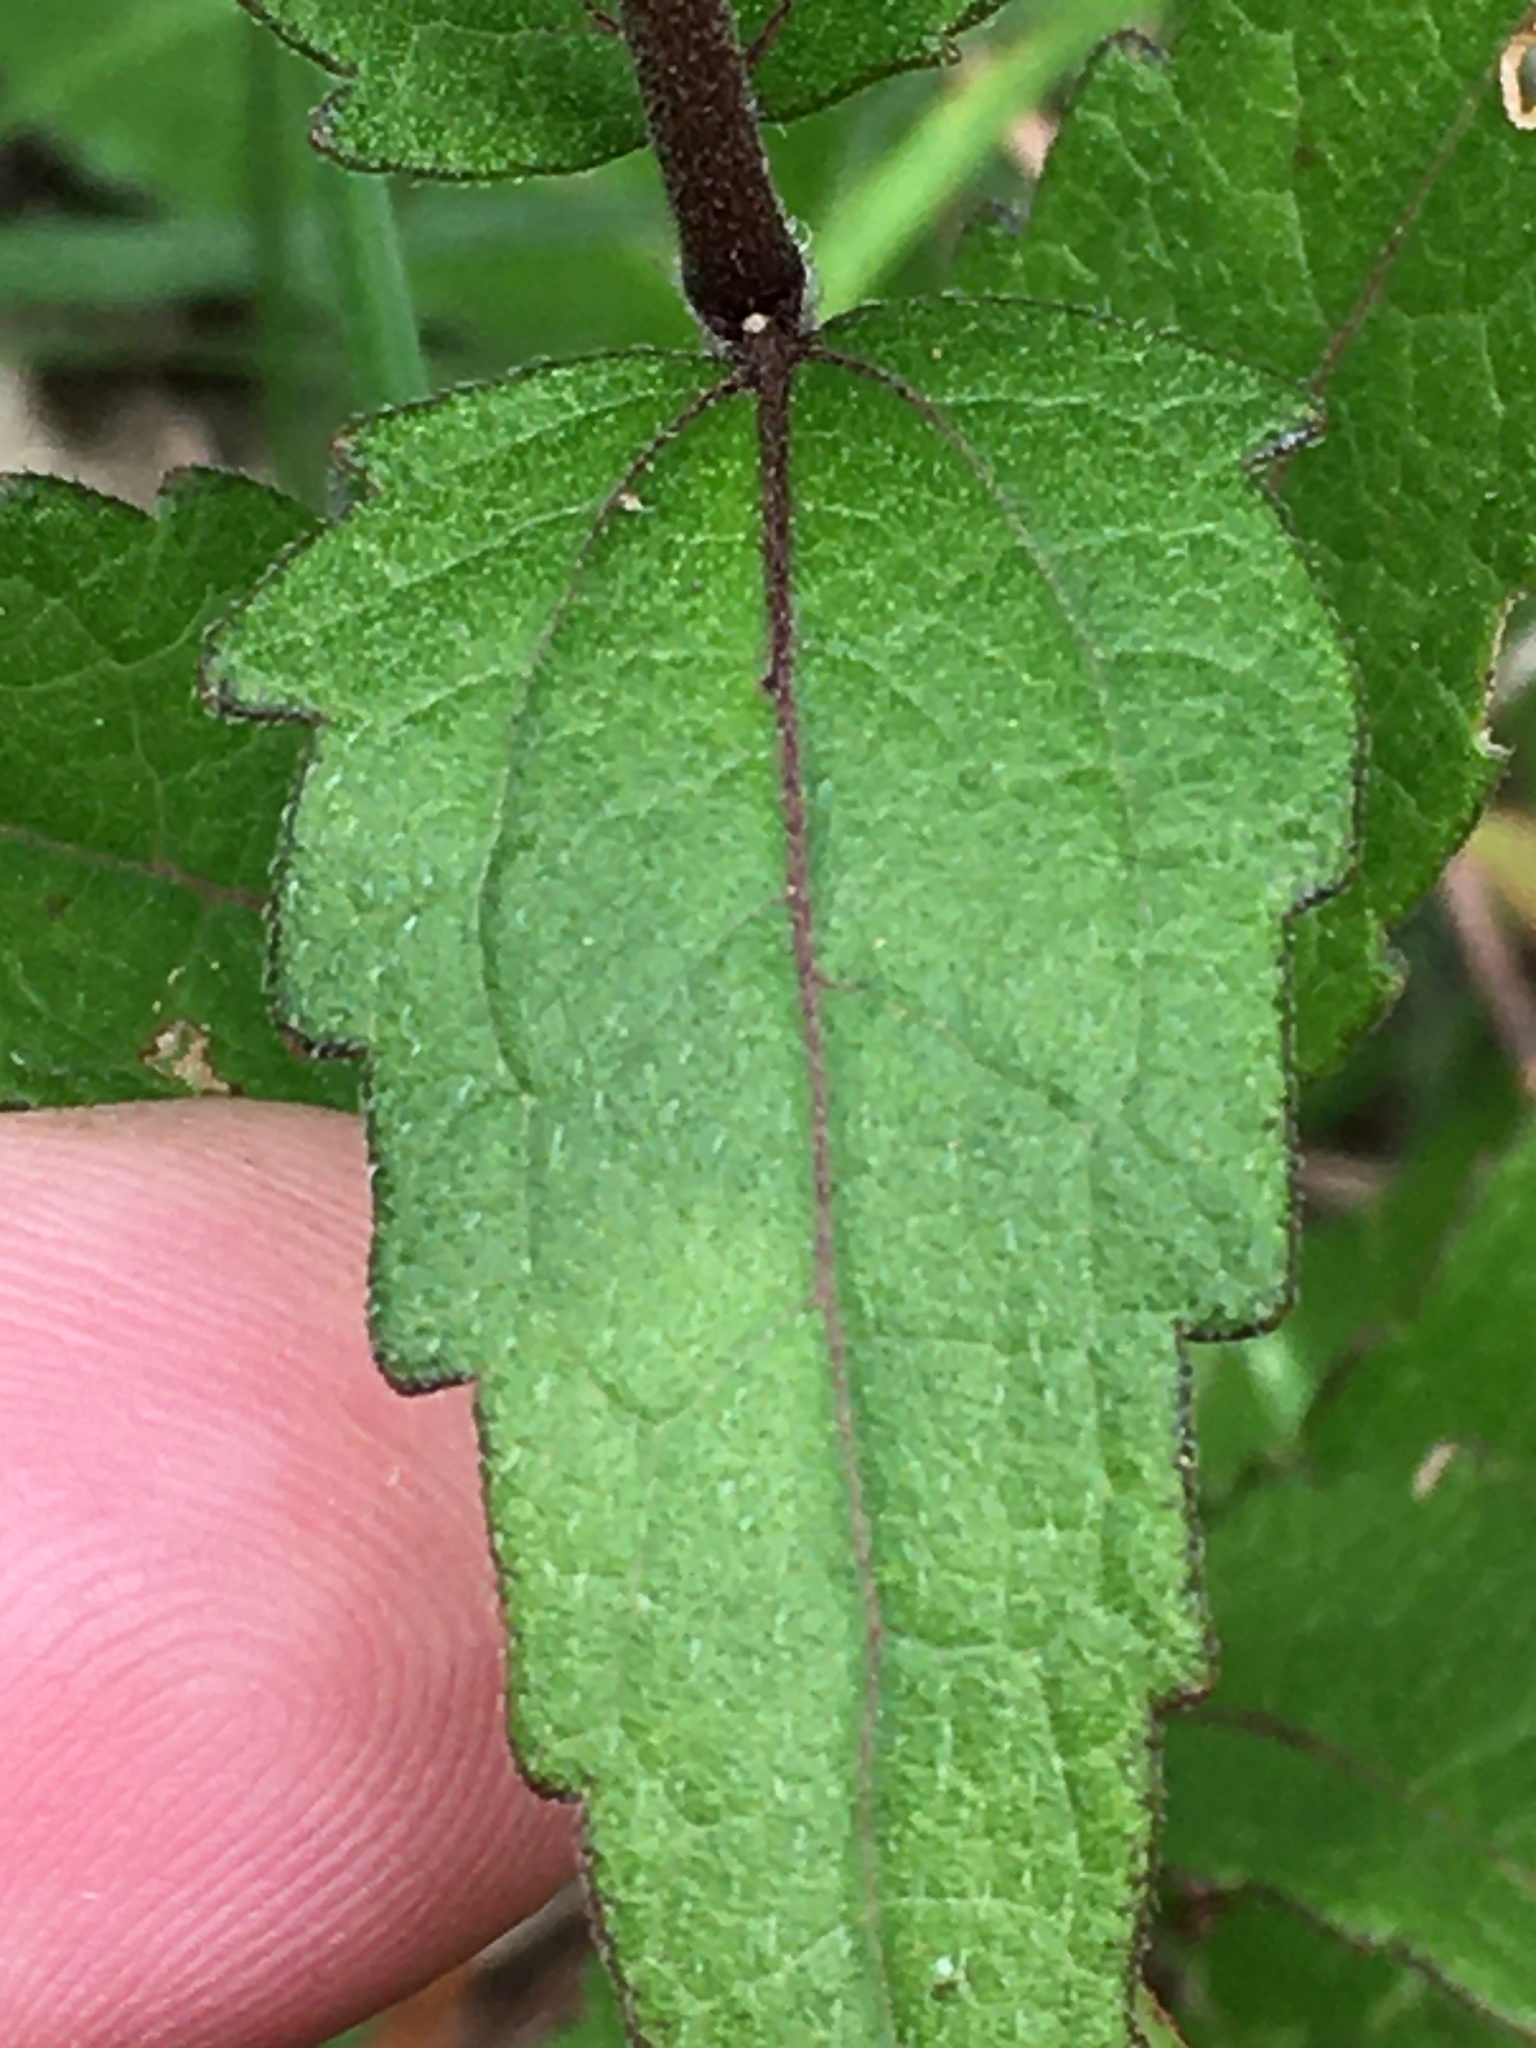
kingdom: Plantae
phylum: Tracheophyta
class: Magnoliopsida
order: Asterales
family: Asteraceae
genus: Eupatorium
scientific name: Eupatorium pilosum
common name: Rough boneset
